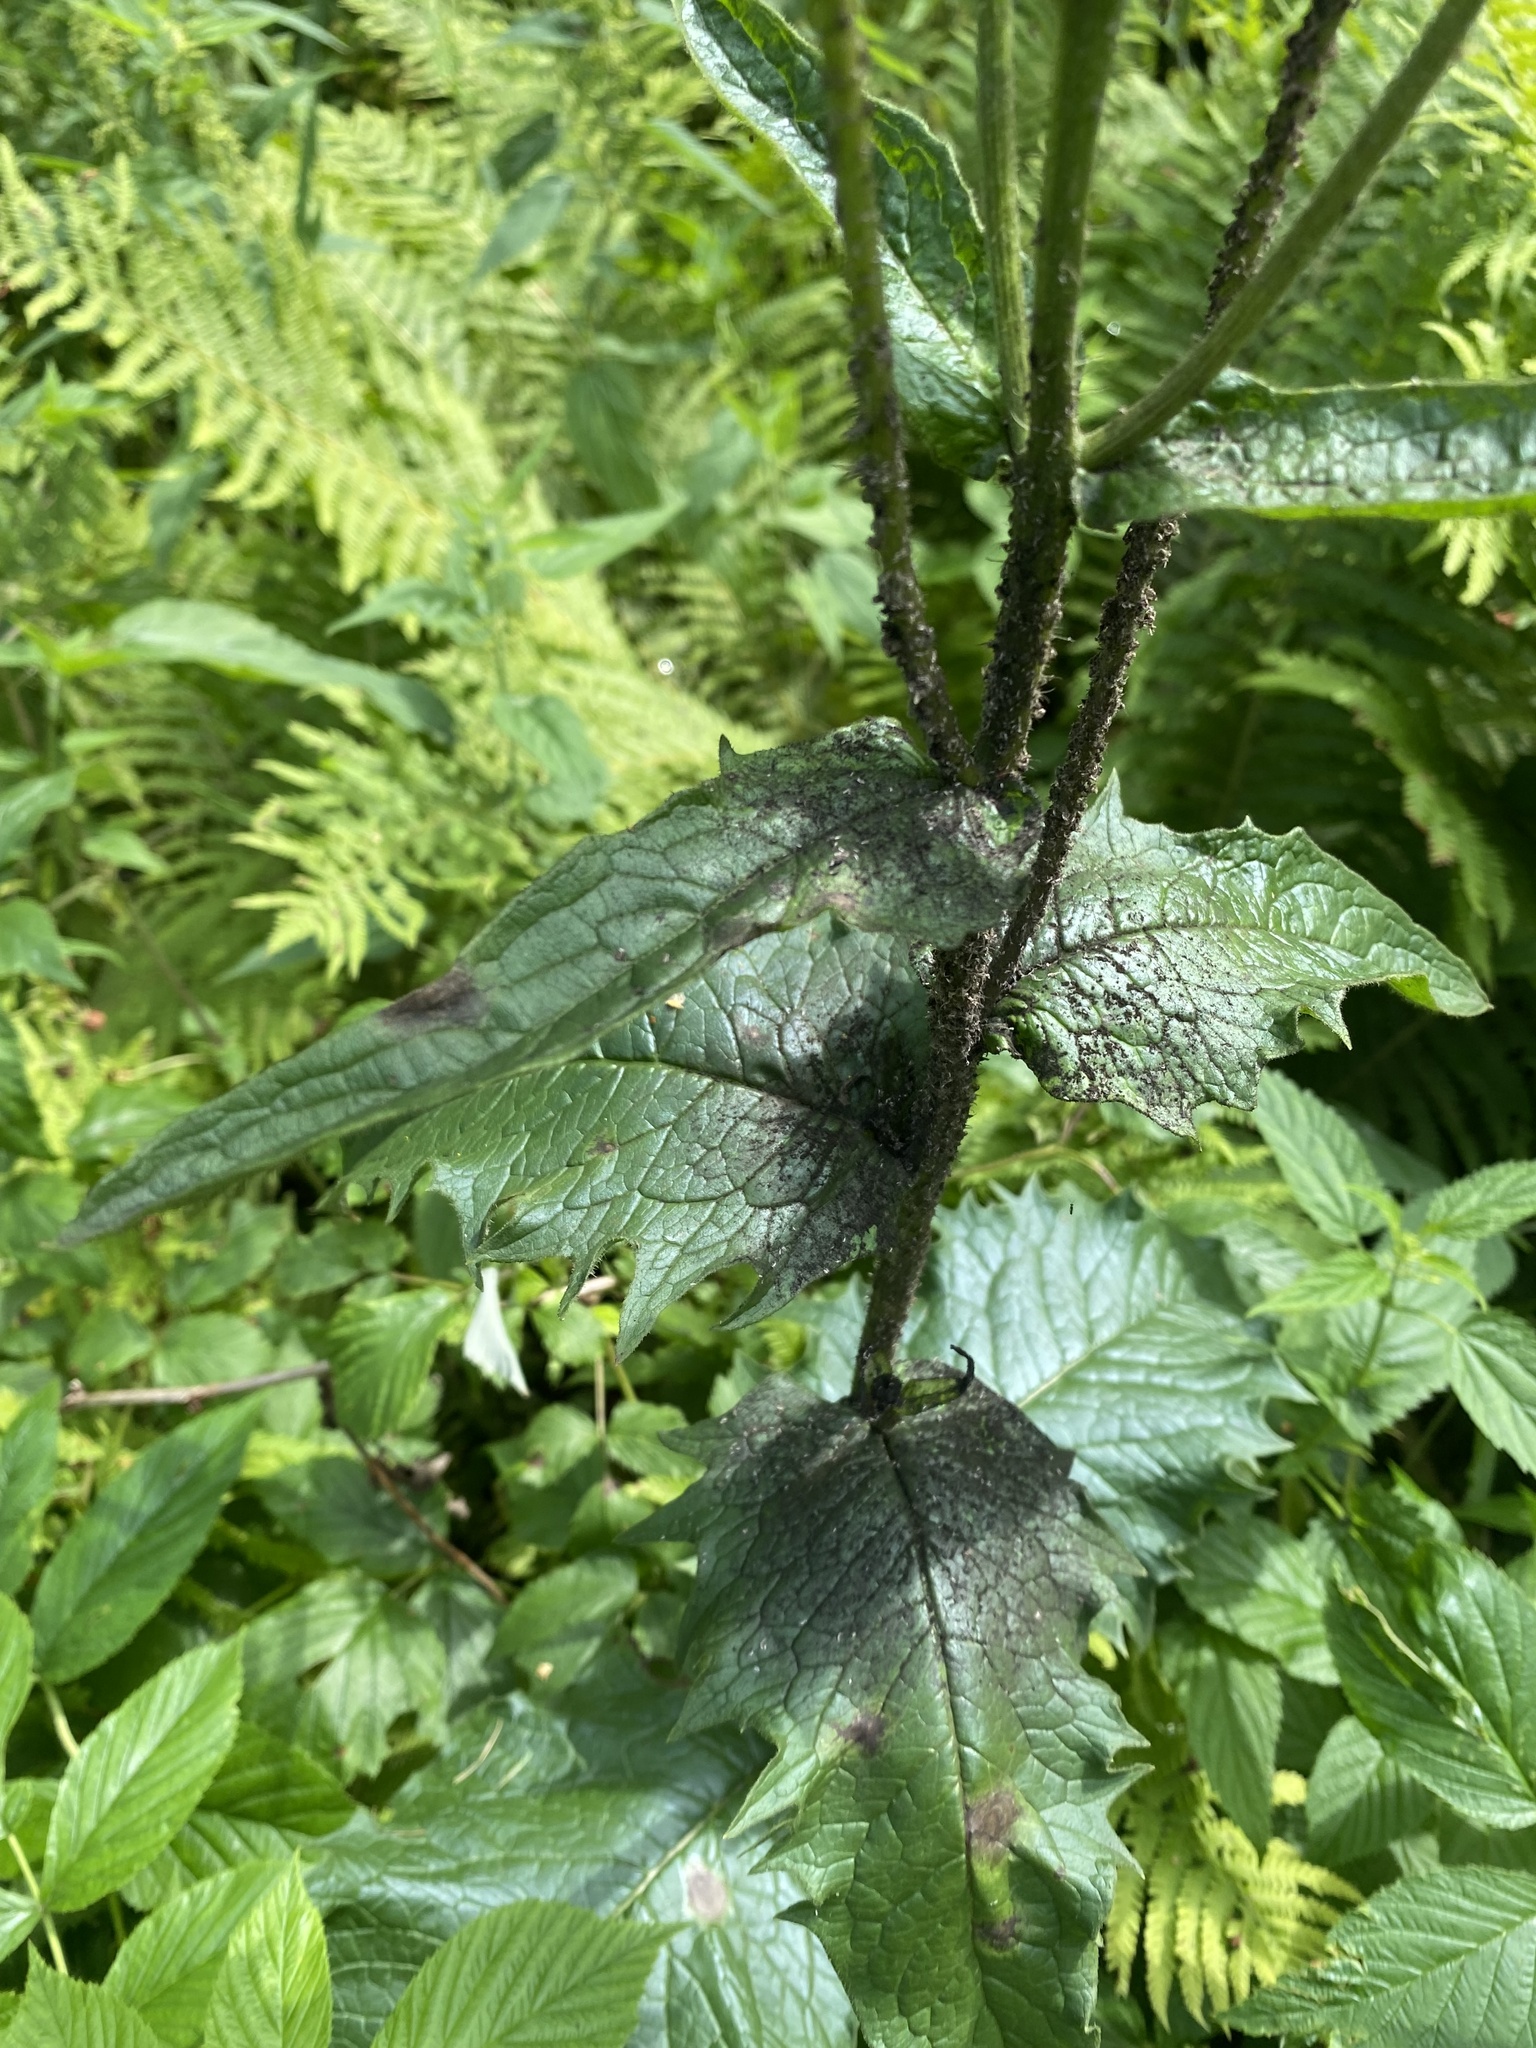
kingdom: Plantae
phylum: Tracheophyta
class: Magnoliopsida
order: Asterales
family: Asteraceae
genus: Crepis
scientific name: Crepis sibirica
